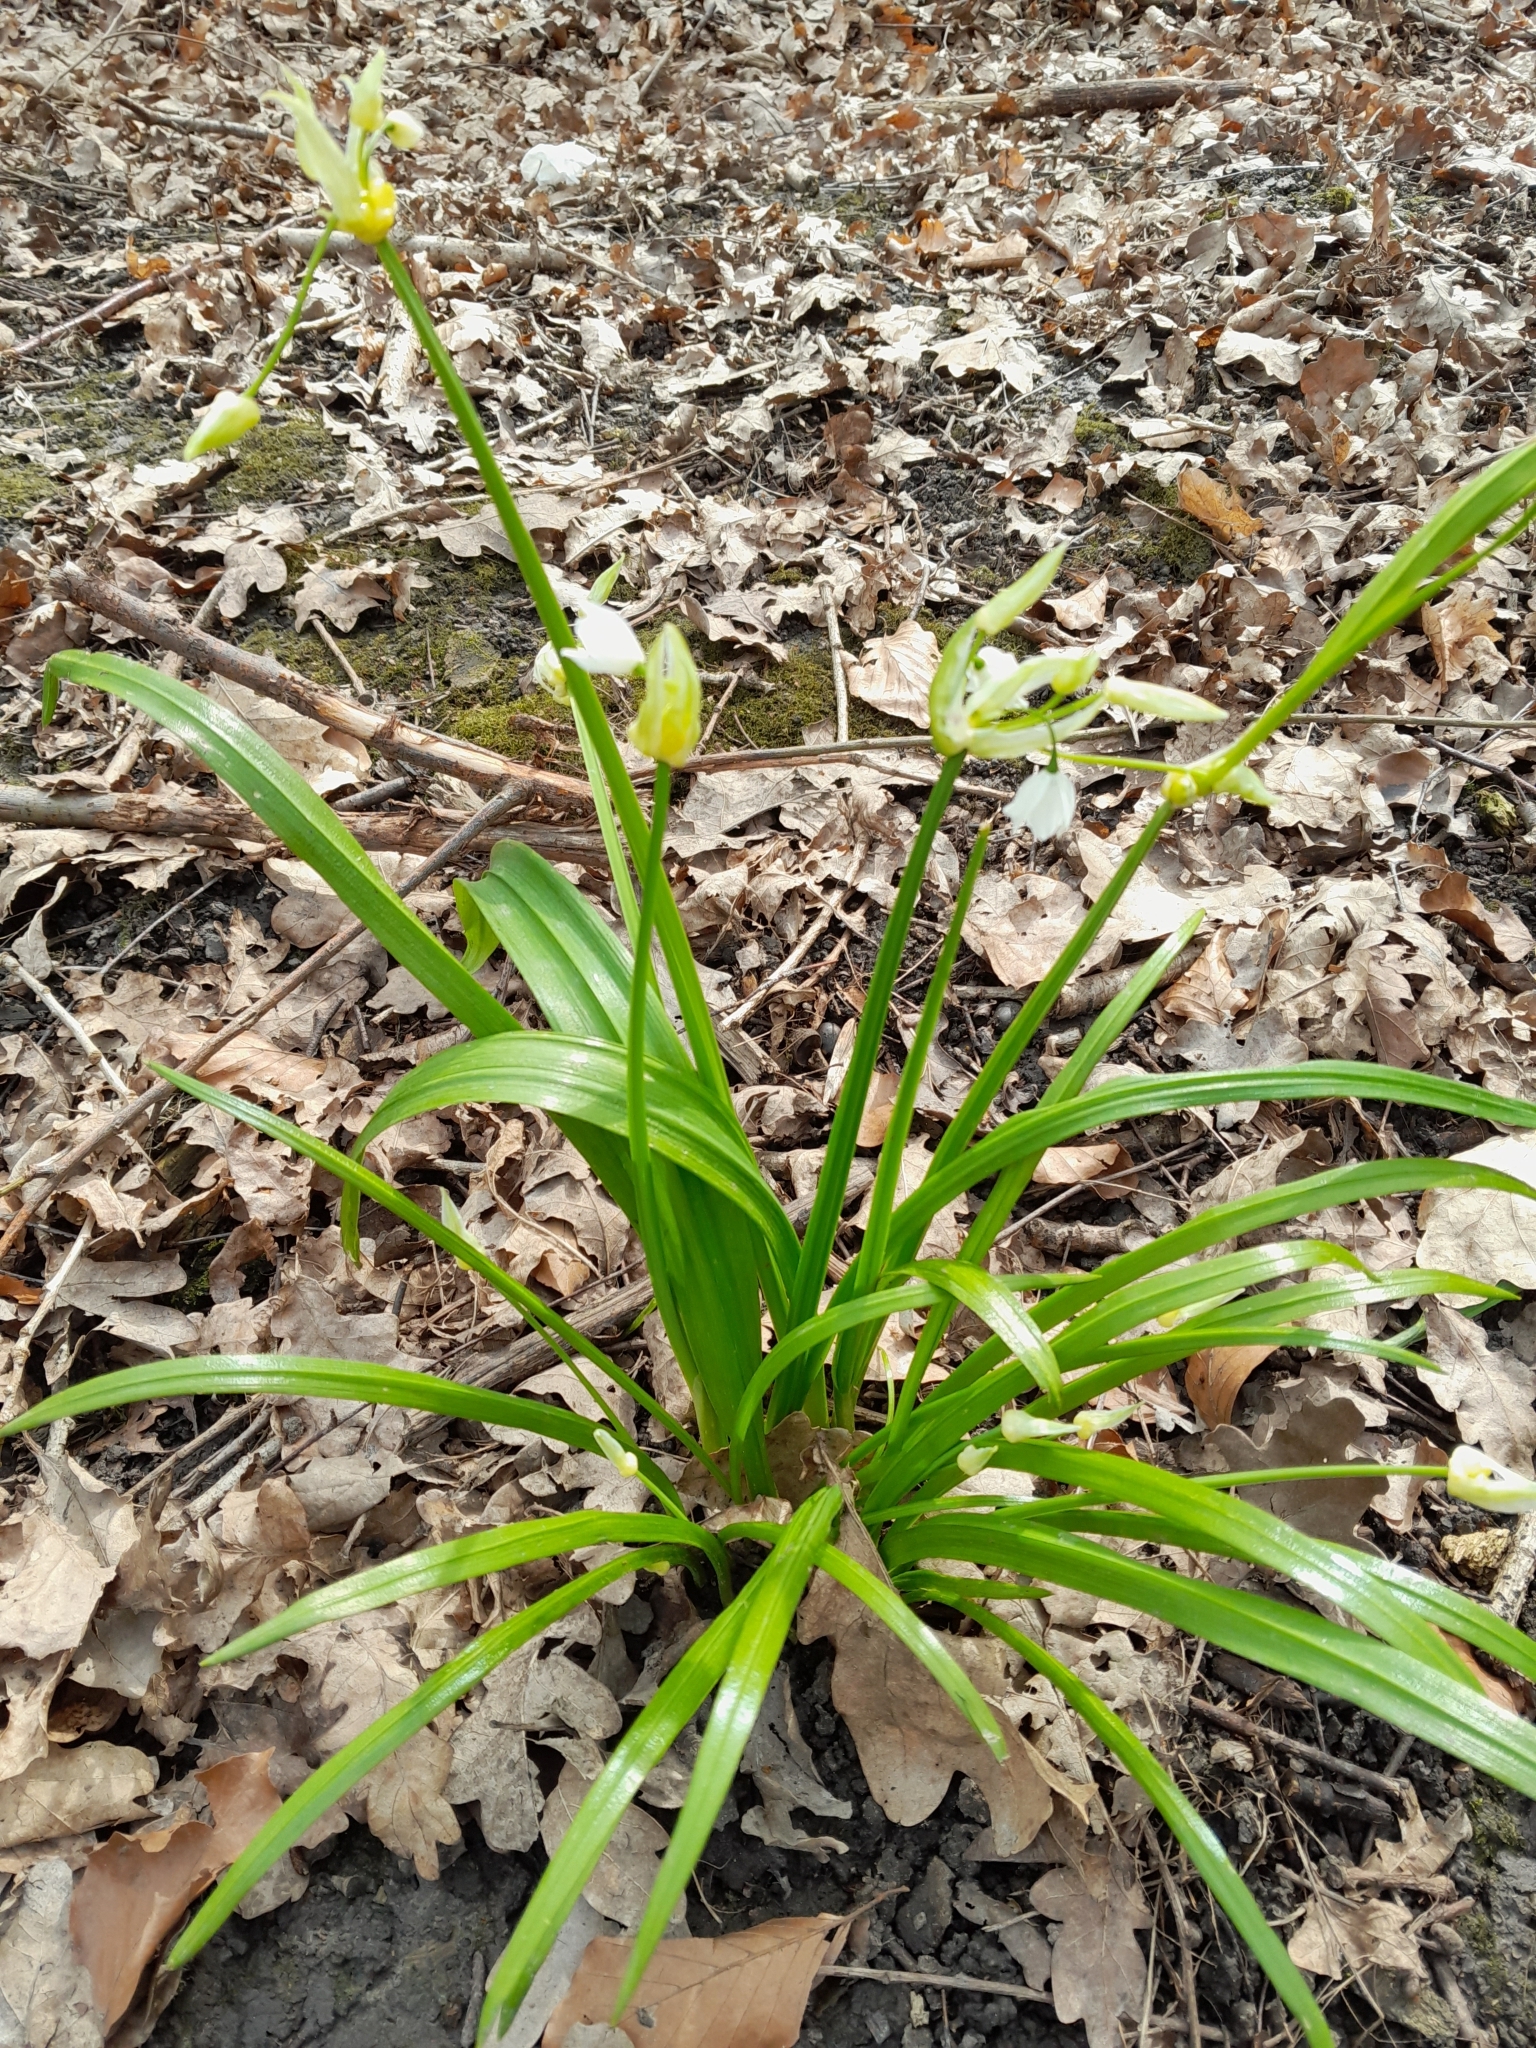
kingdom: Plantae
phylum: Tracheophyta
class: Liliopsida
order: Asparagales
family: Amaryllidaceae
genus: Allium
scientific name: Allium paradoxum
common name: Few-flowered garlic
